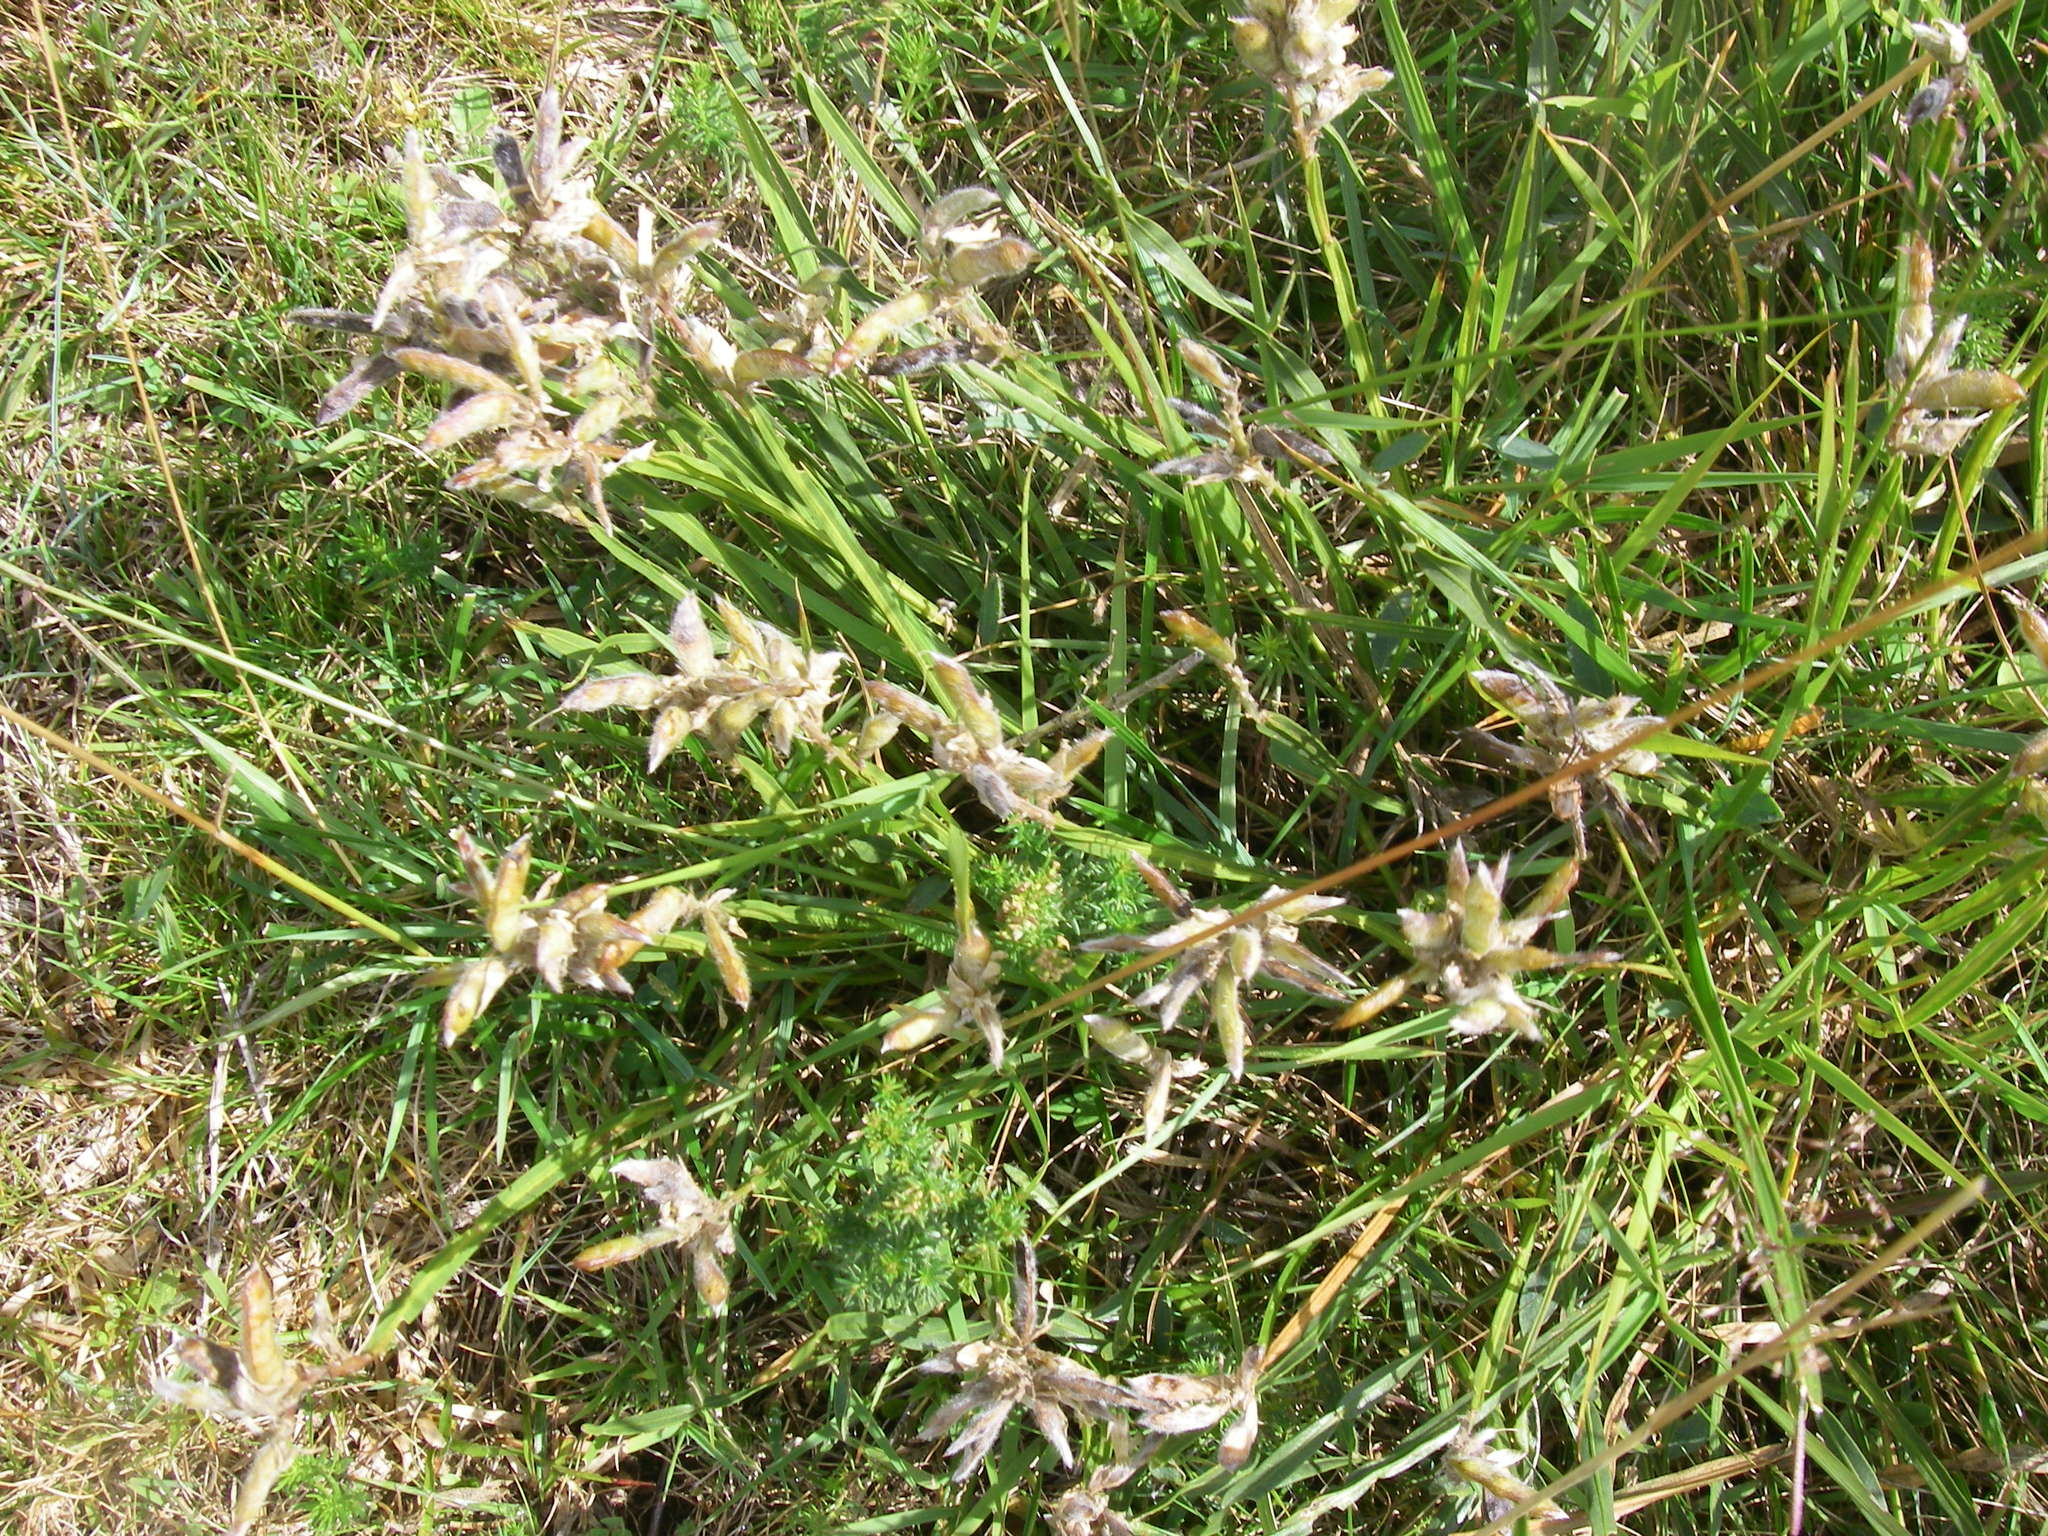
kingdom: Plantae
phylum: Tracheophyta
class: Magnoliopsida
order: Fabales
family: Fabaceae
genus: Genista
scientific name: Genista sagittalis
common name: Winged greenweed
